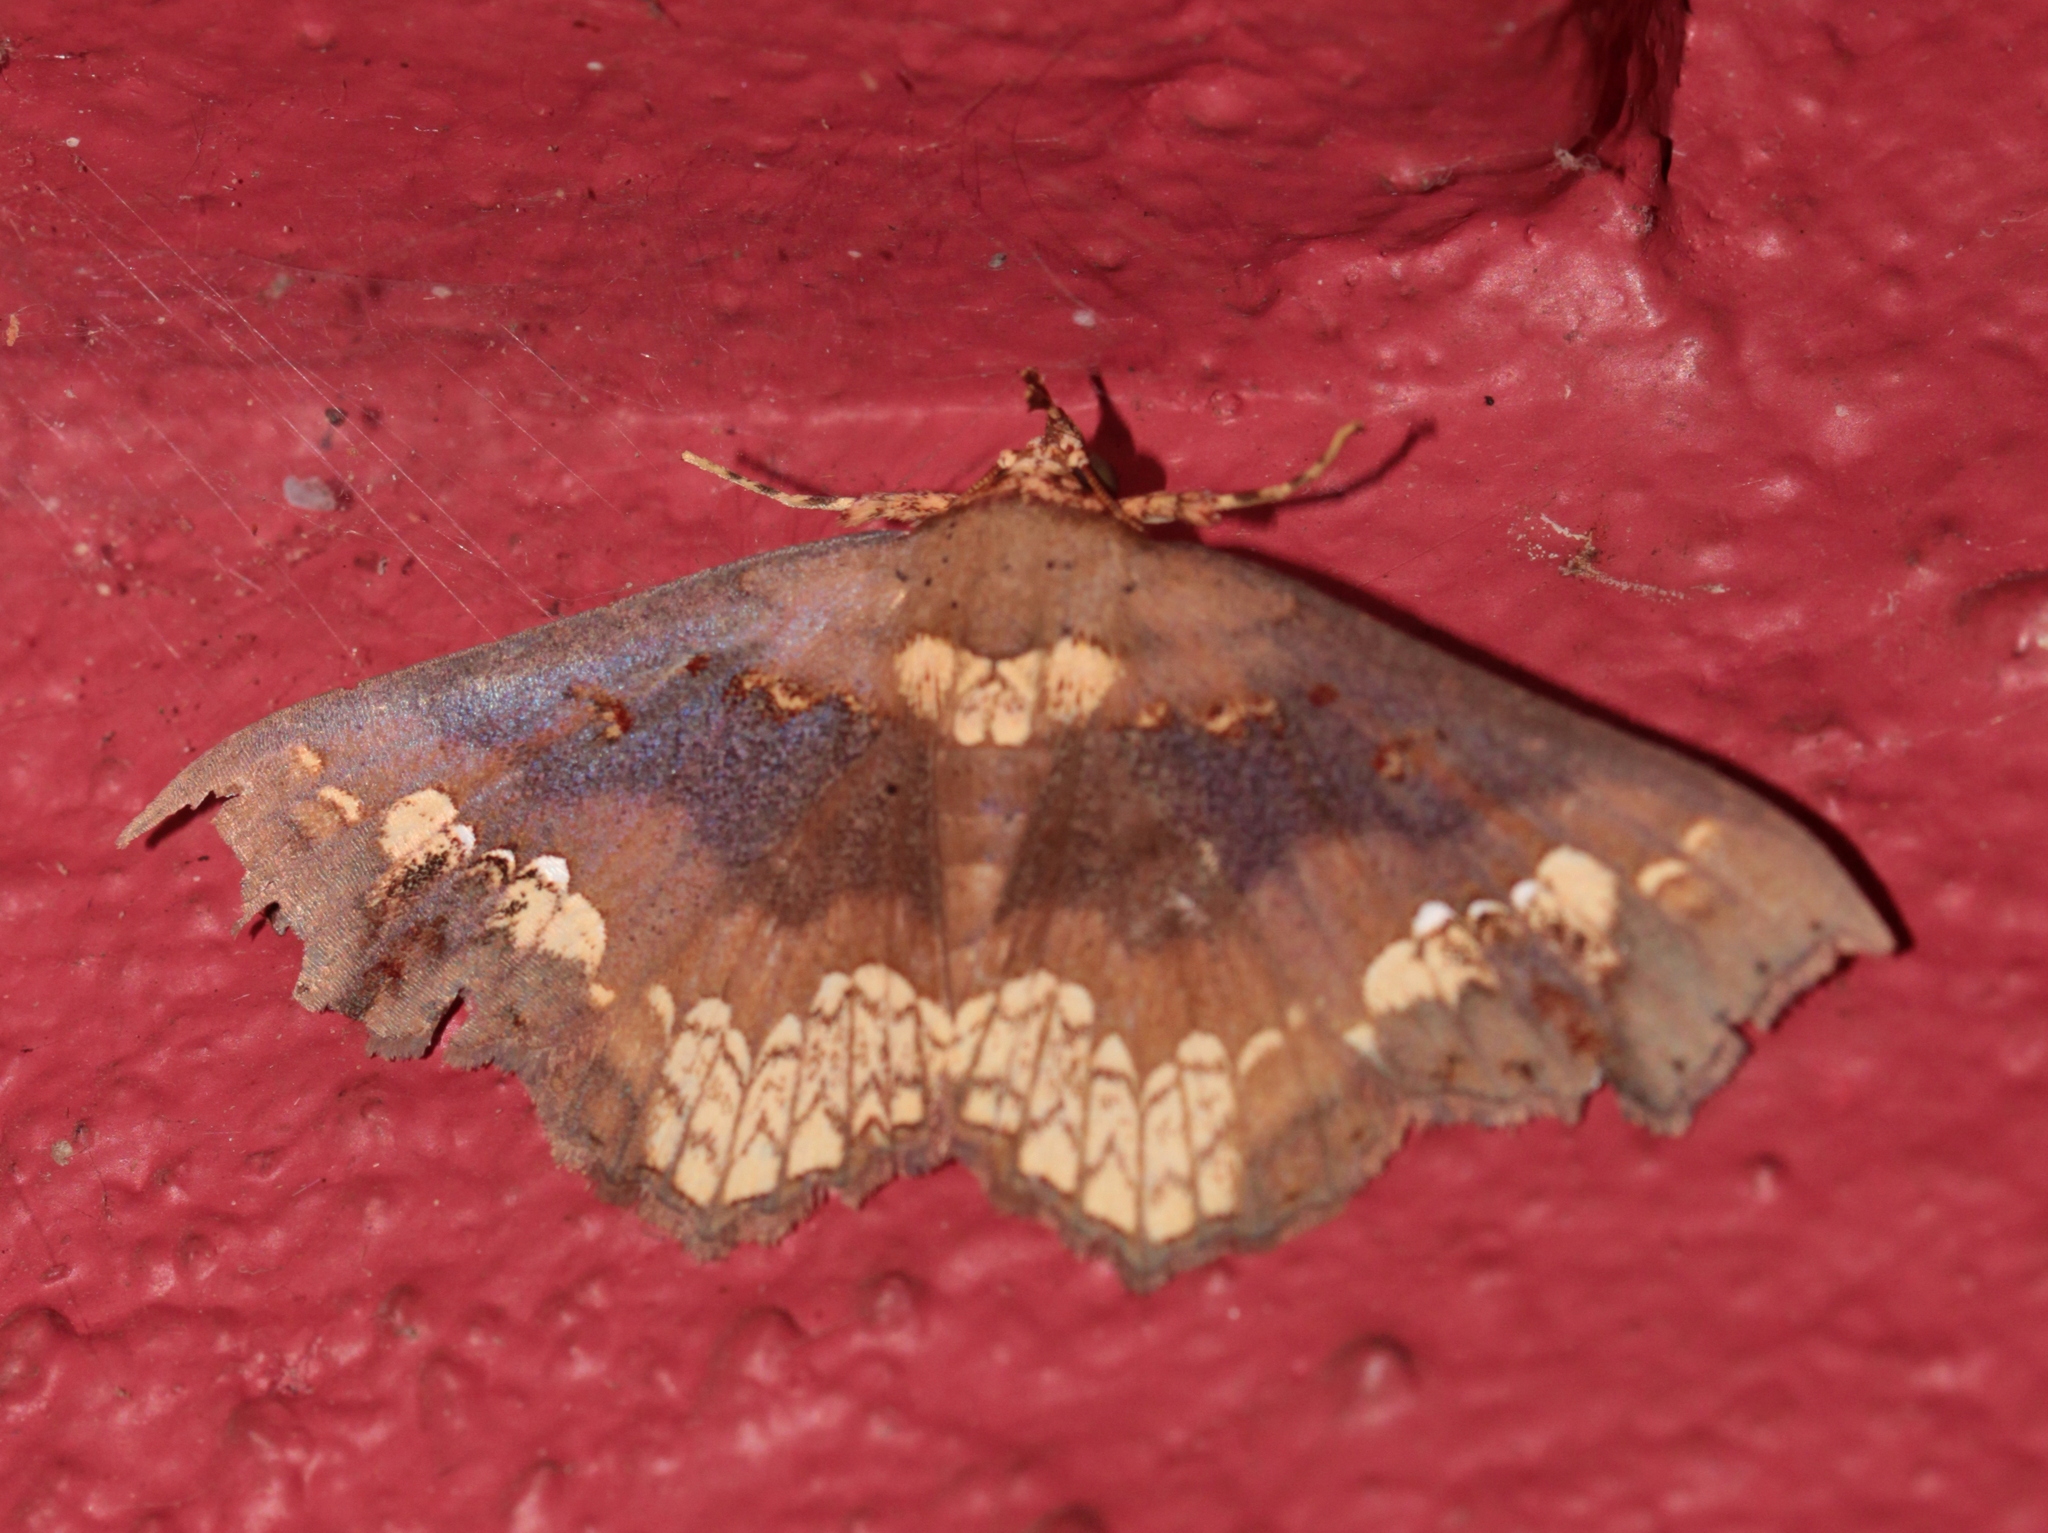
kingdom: Animalia
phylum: Arthropoda
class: Insecta
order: Lepidoptera
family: Erebidae
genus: Lopharthrum
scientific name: Lopharthrum comprimens
